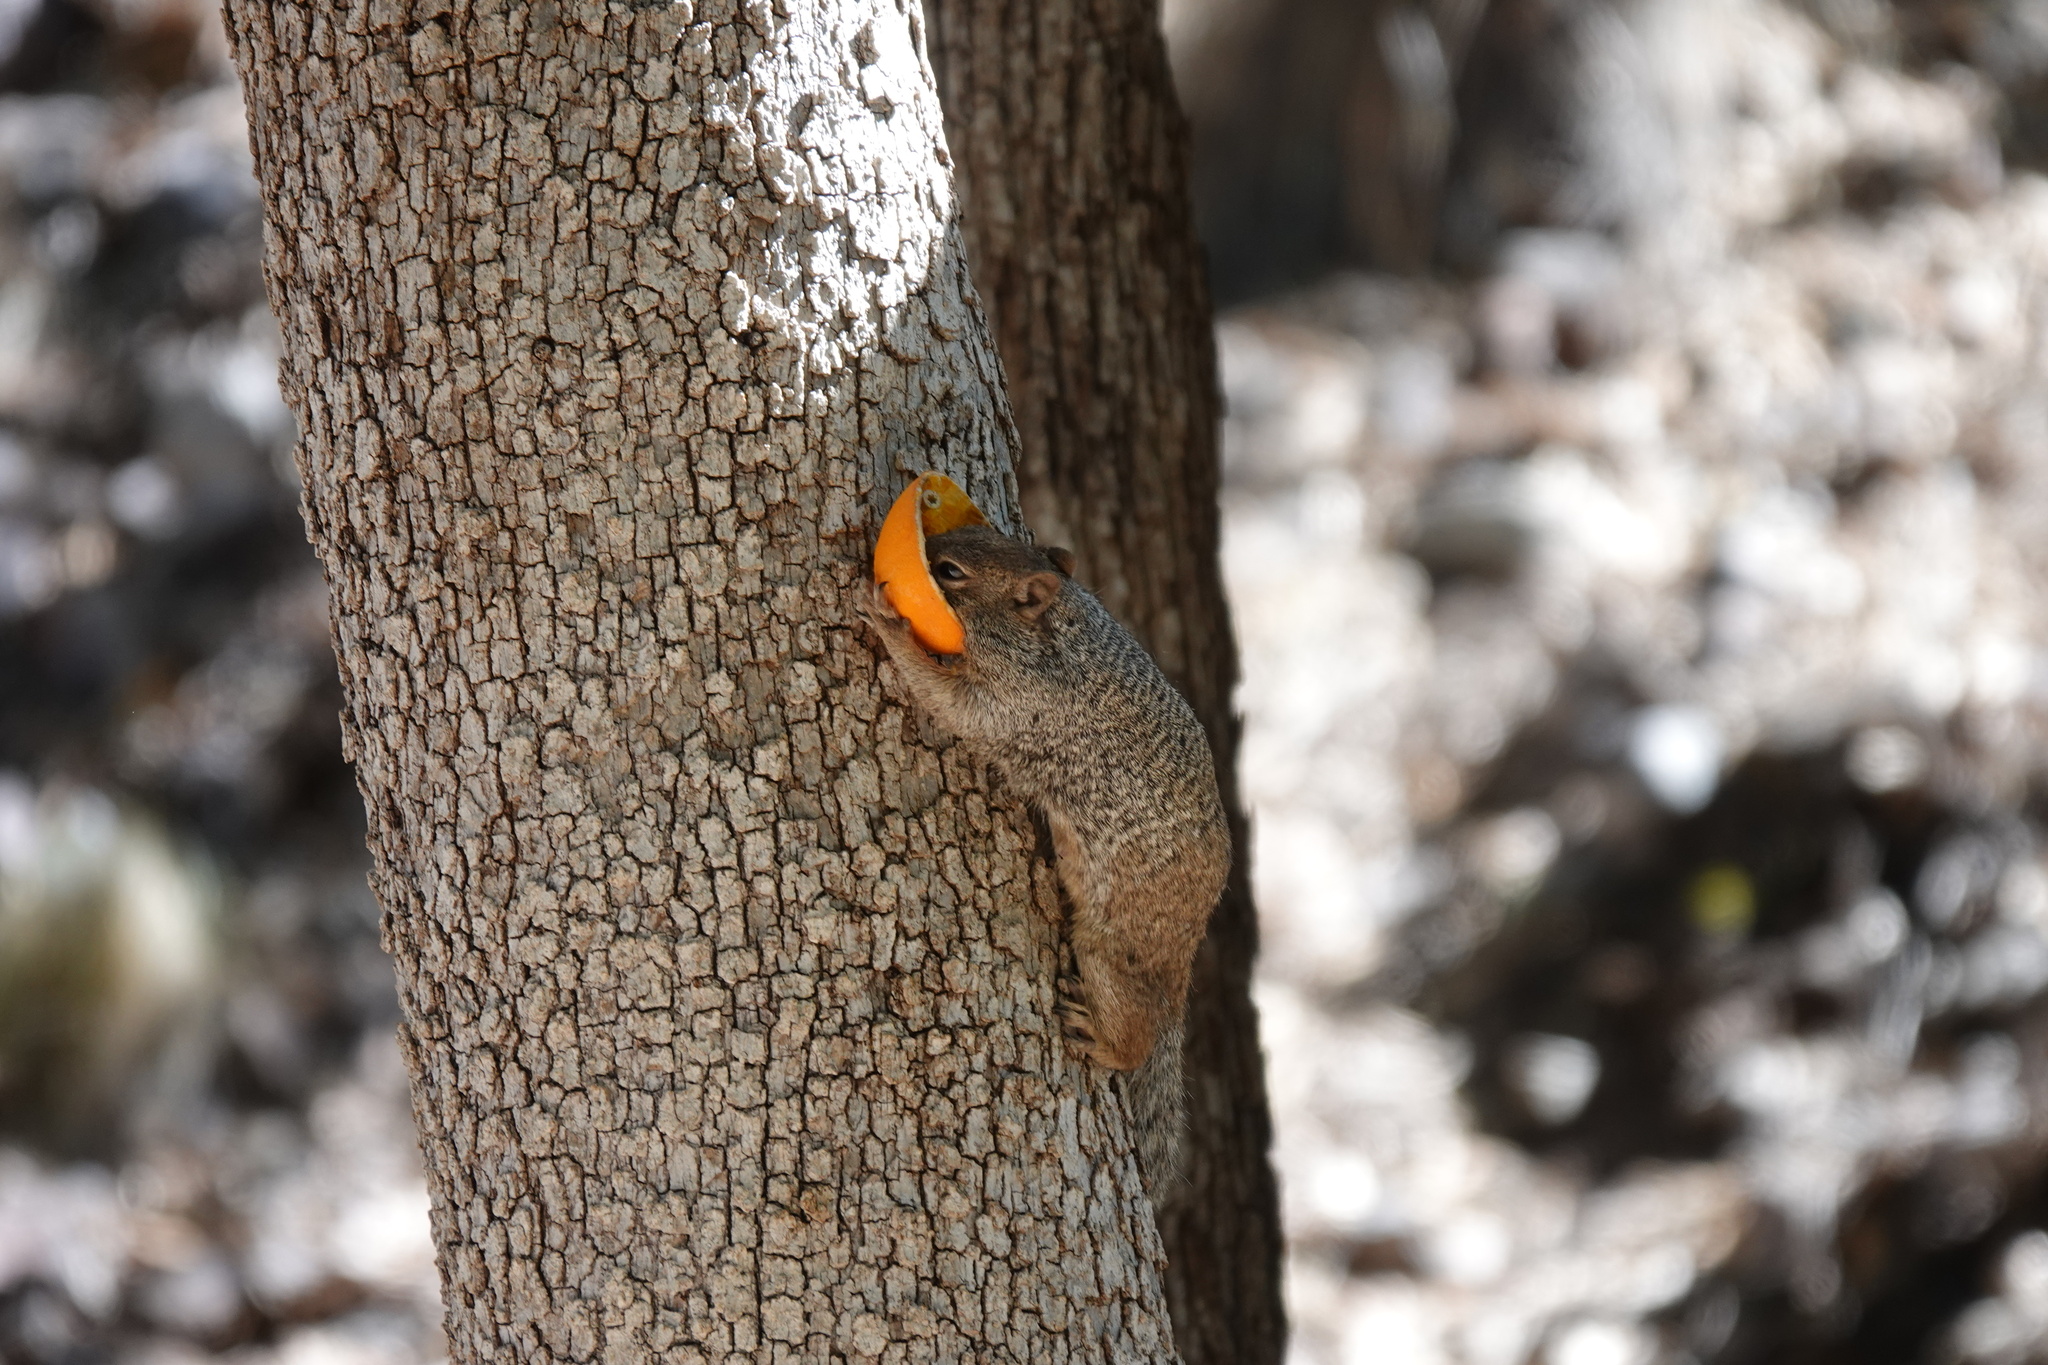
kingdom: Animalia
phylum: Chordata
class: Mammalia
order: Rodentia
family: Sciuridae
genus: Otospermophilus
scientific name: Otospermophilus variegatus
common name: Rock squirrel
